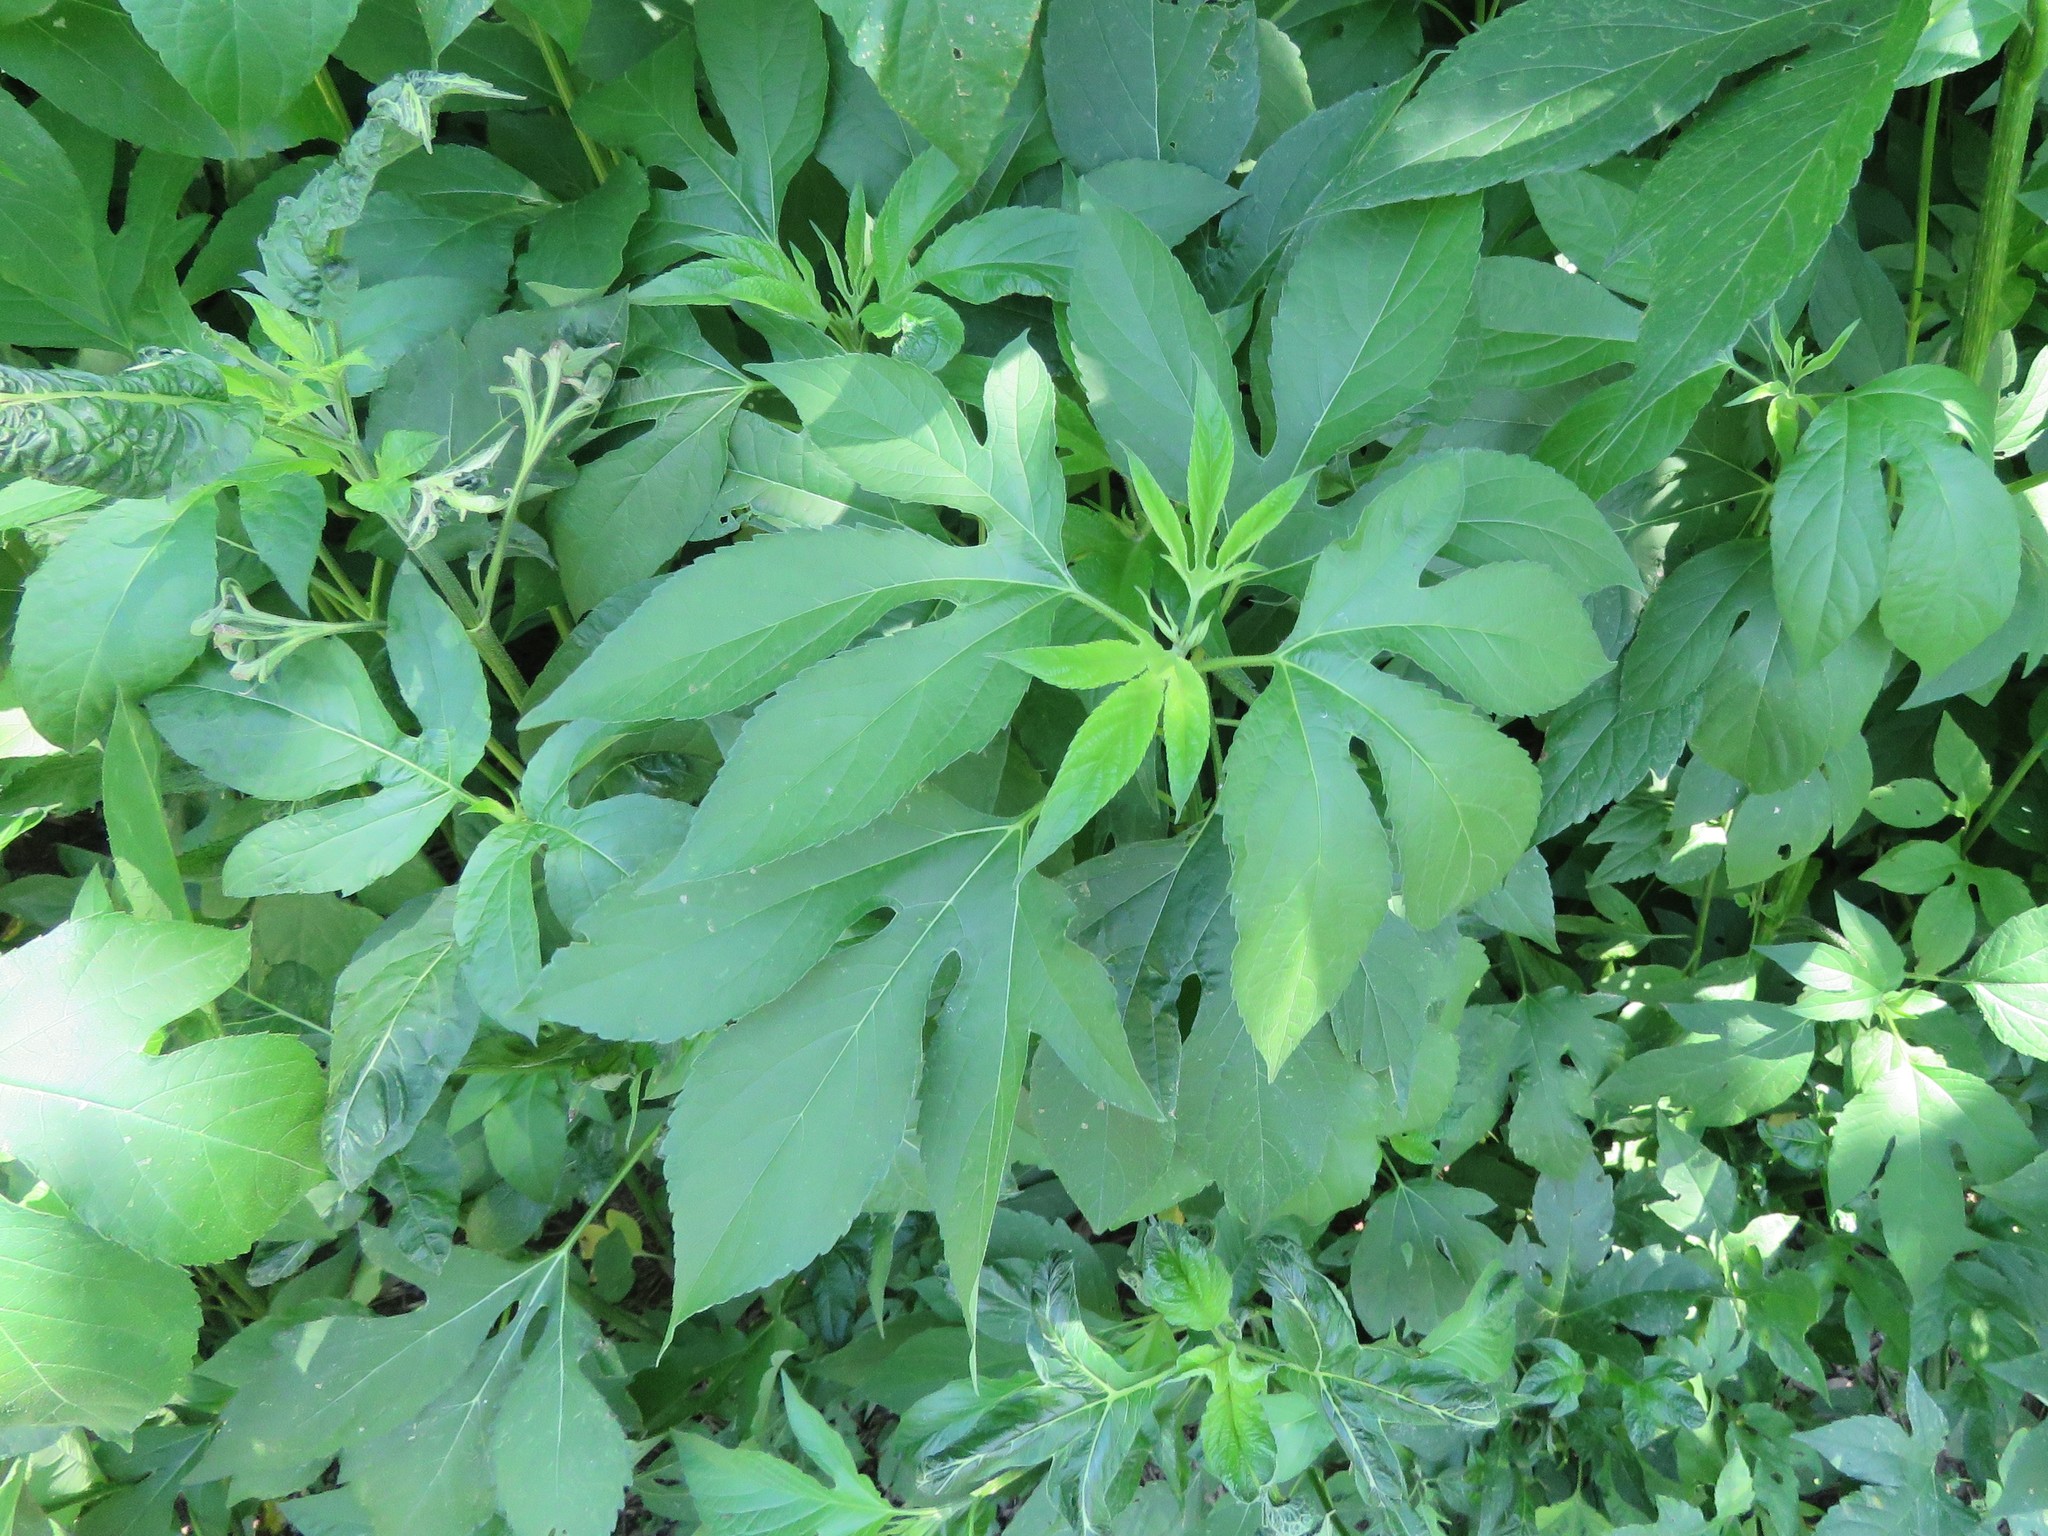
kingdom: Plantae
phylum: Tracheophyta
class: Magnoliopsida
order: Asterales
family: Asteraceae
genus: Ambrosia
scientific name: Ambrosia trifida
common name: Giant ragweed
